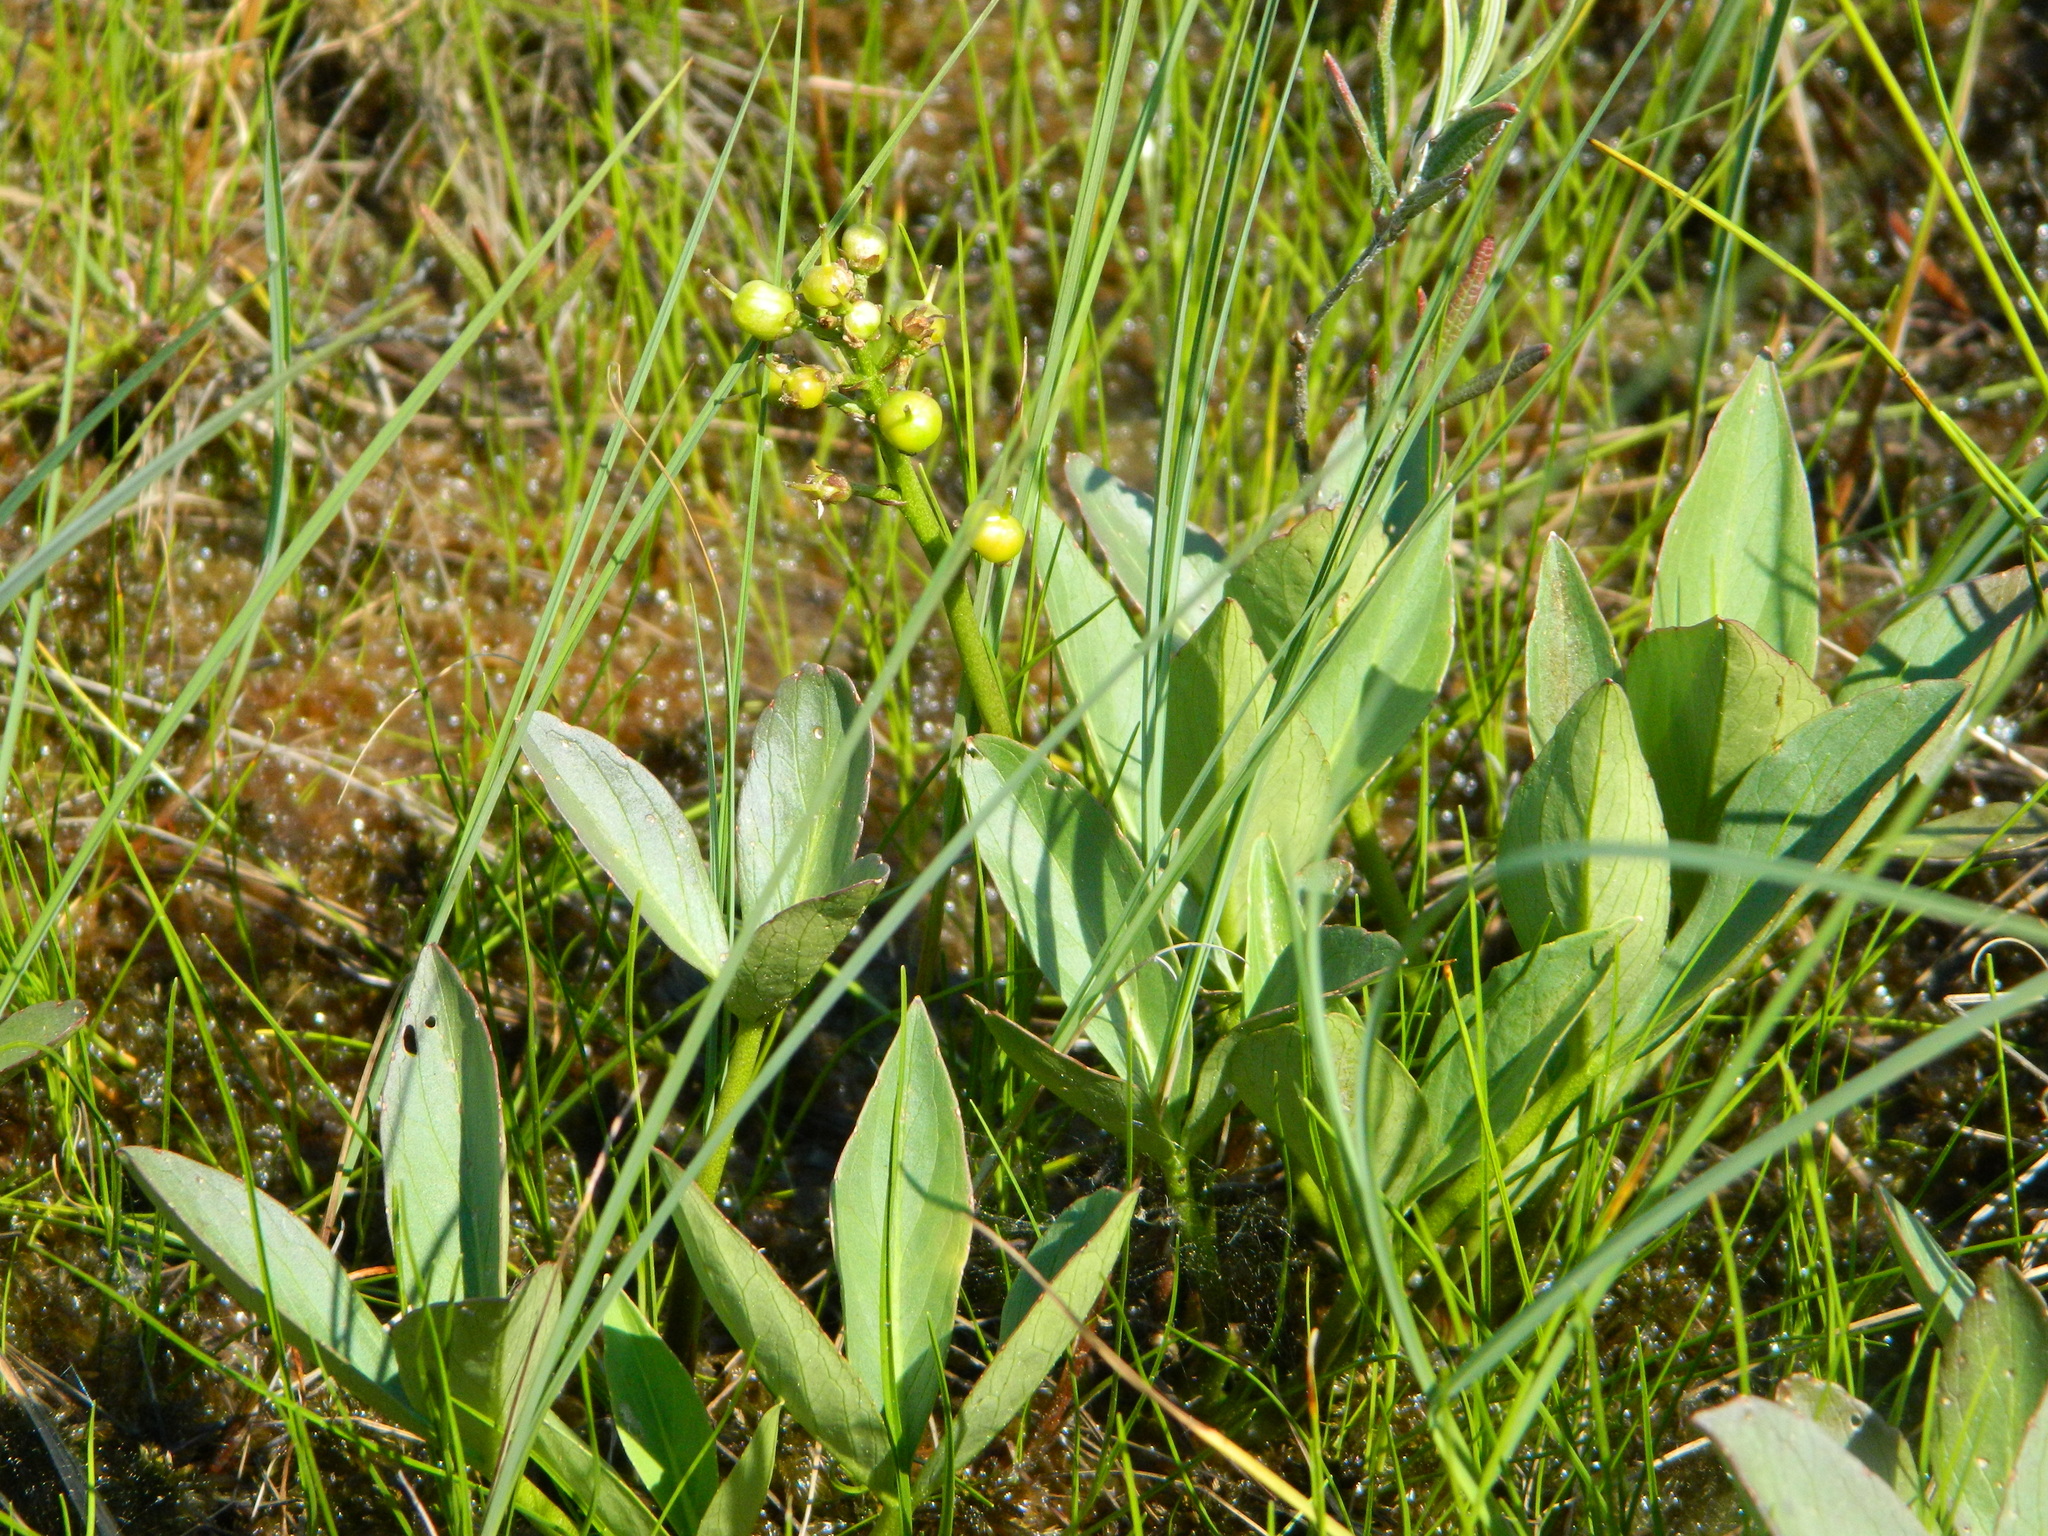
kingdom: Plantae
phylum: Tracheophyta
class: Magnoliopsida
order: Asterales
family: Menyanthaceae
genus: Menyanthes
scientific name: Menyanthes trifoliata
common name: Bogbean
